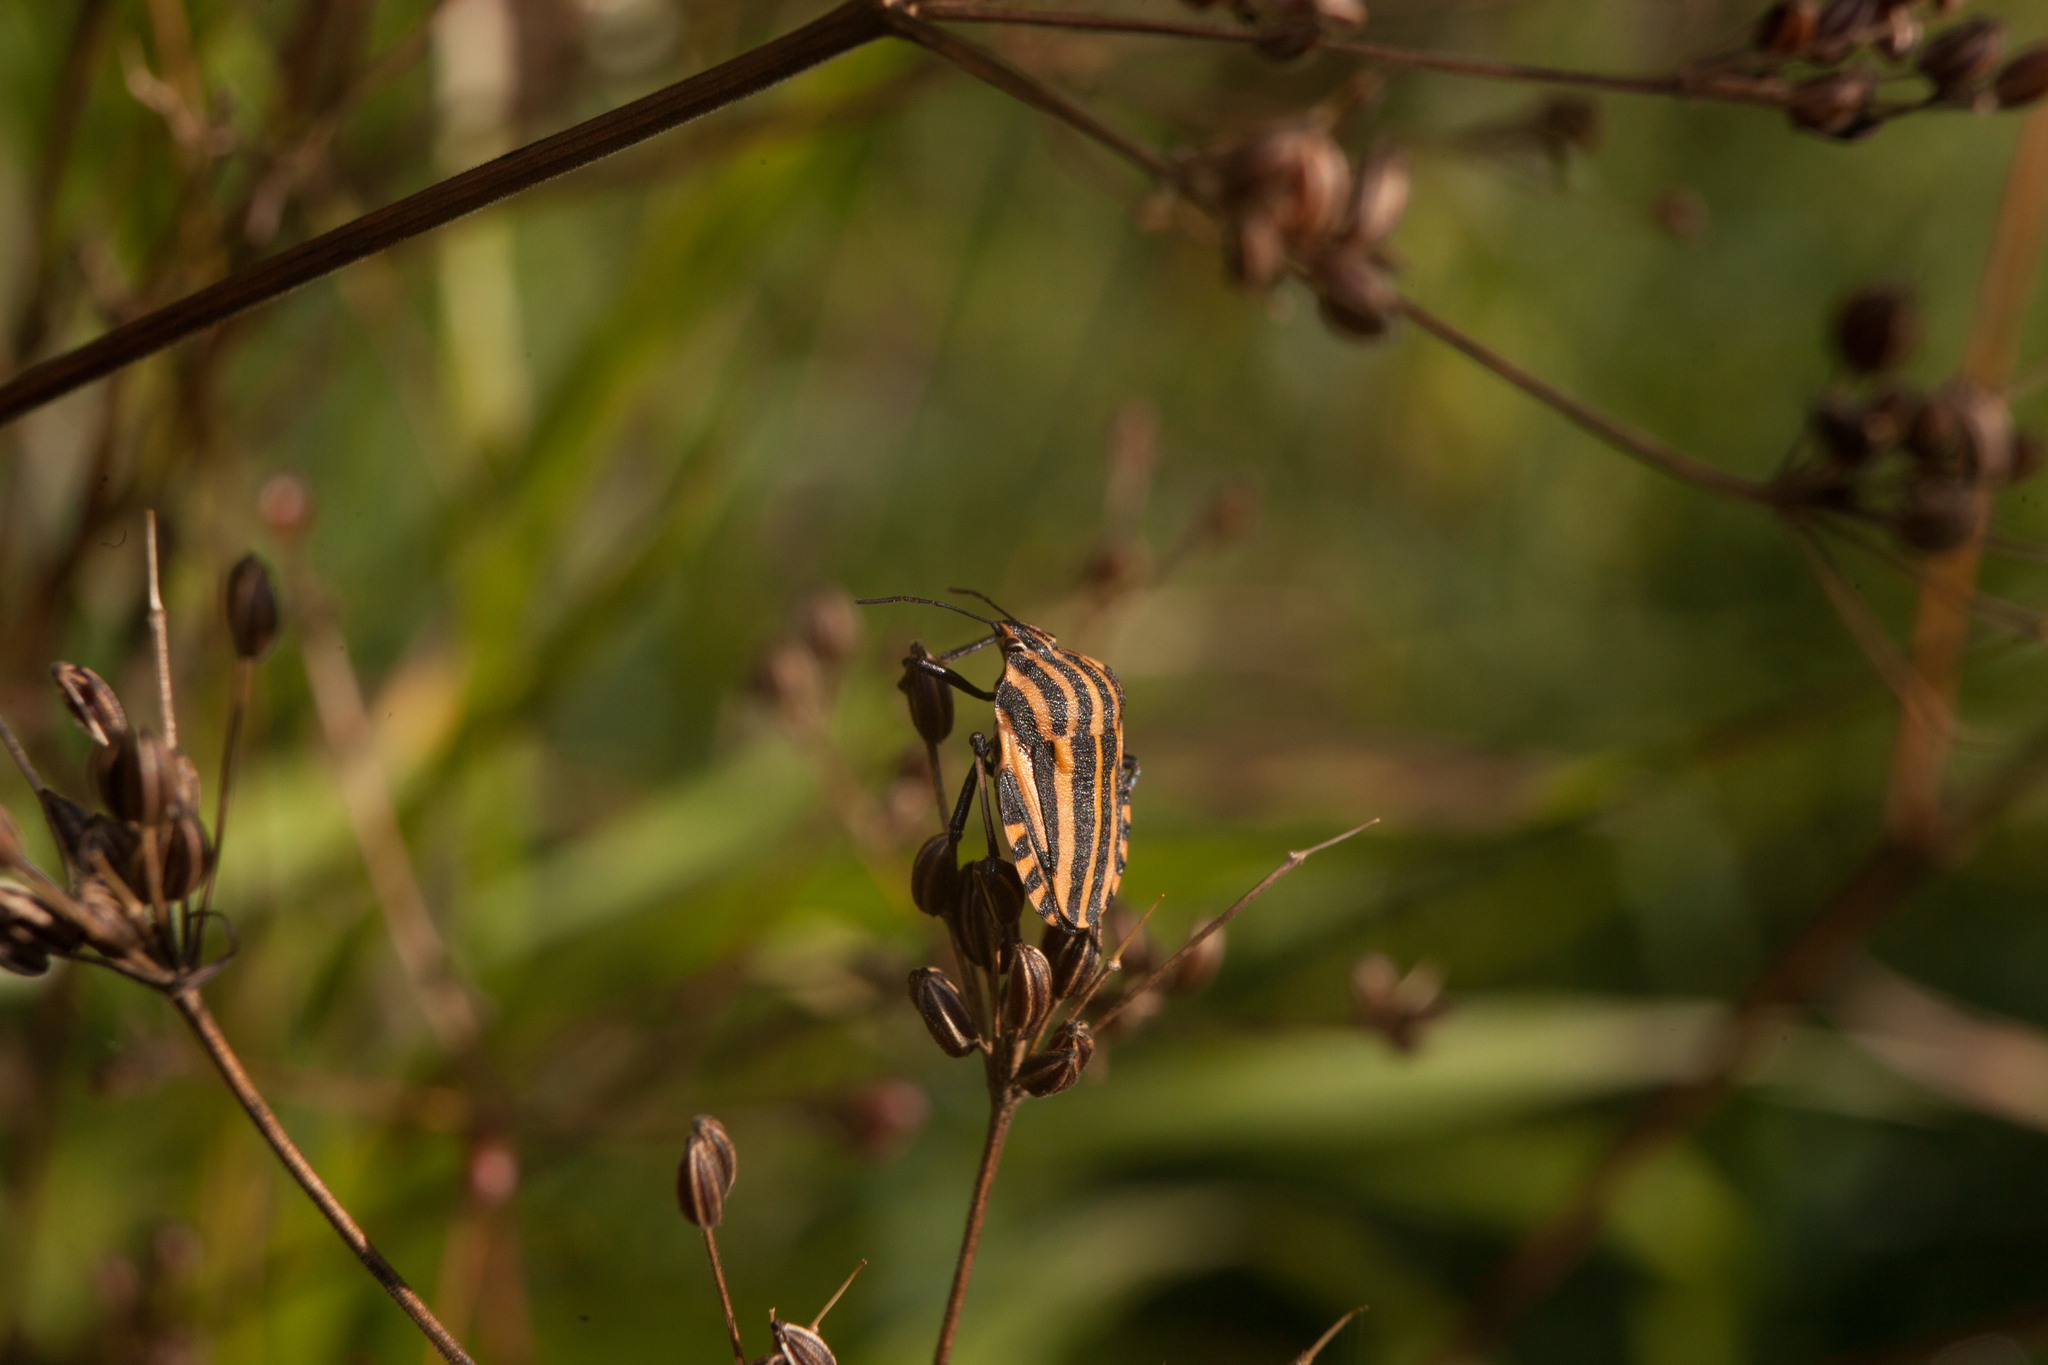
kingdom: Animalia
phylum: Arthropoda
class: Insecta
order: Hemiptera
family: Pentatomidae
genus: Graphosoma
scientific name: Graphosoma italicum
